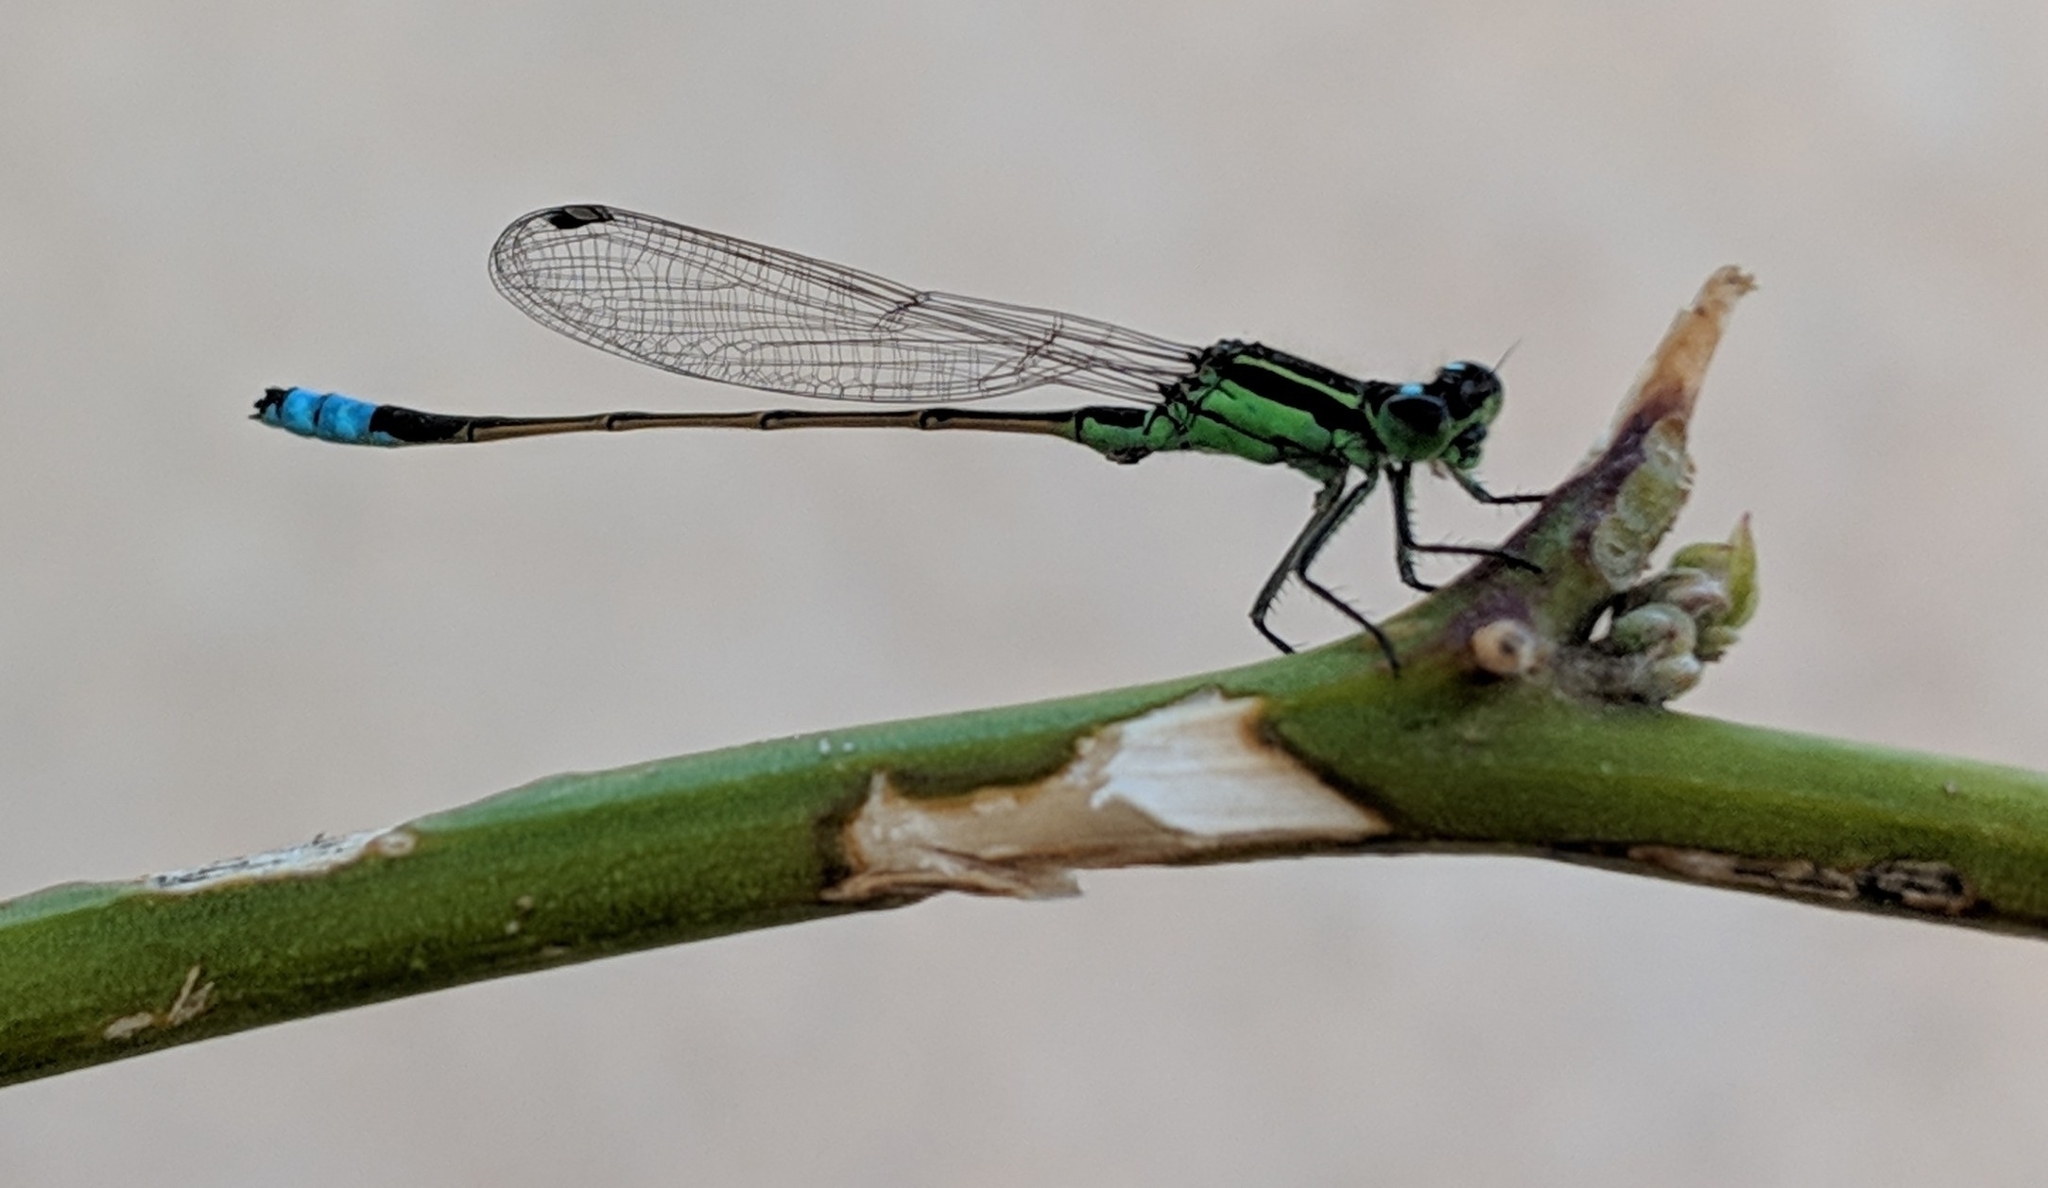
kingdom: Animalia
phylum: Arthropoda
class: Insecta
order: Odonata
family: Coenagrionidae
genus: Ischnura
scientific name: Ischnura ramburii
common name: Rambur's forktail
